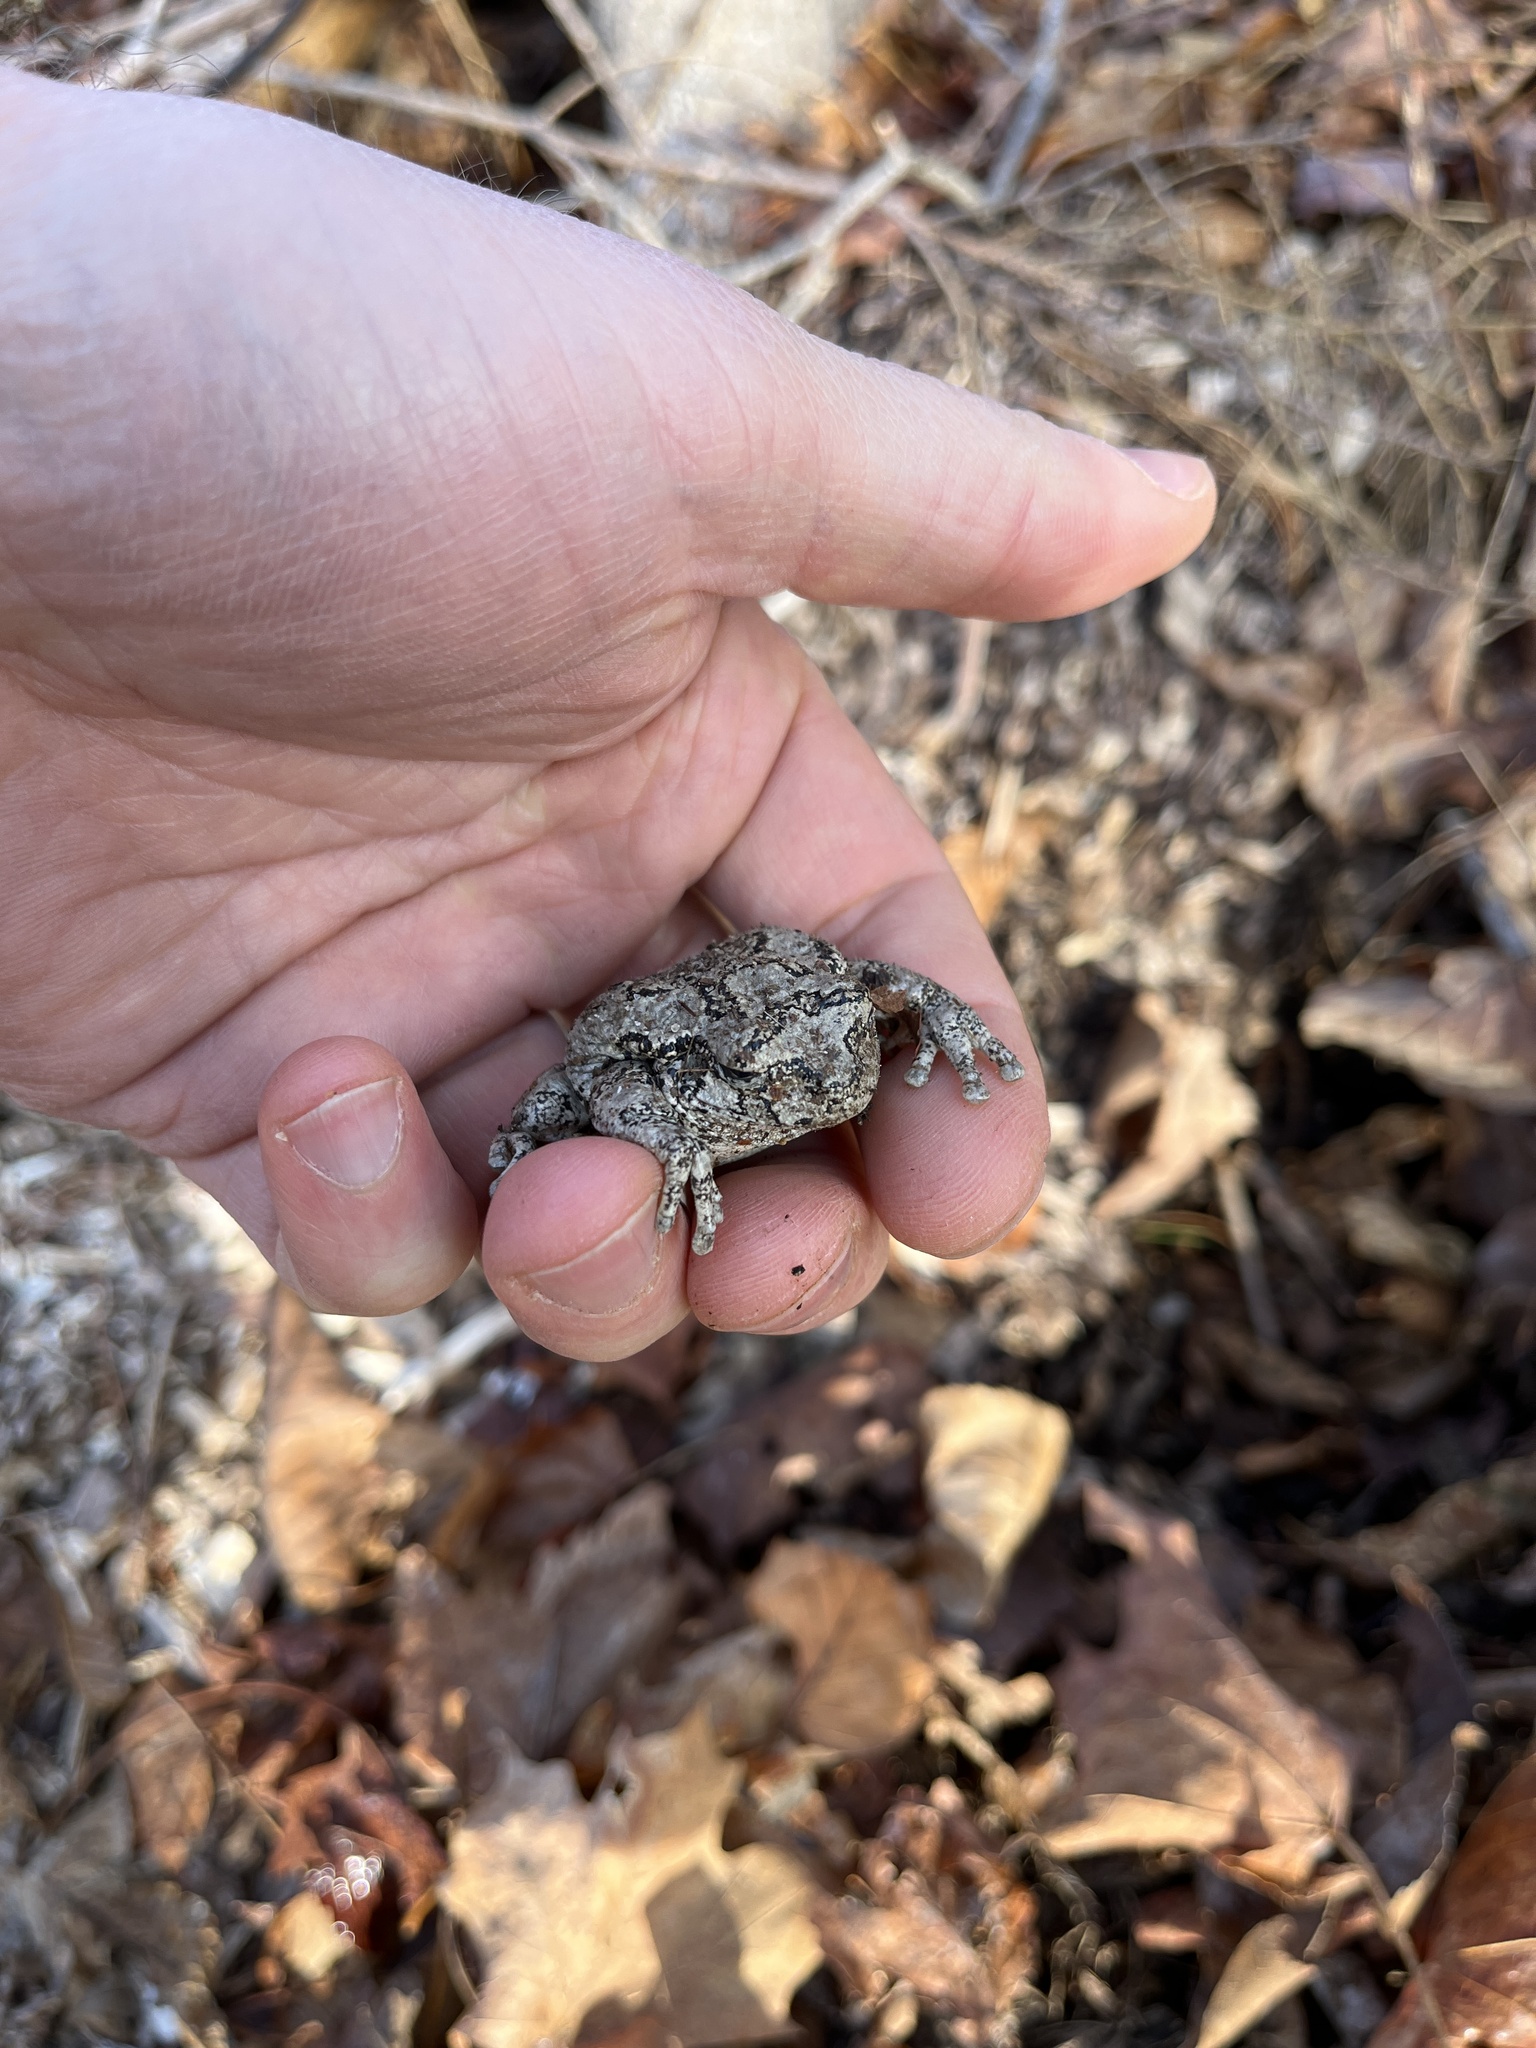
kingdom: Animalia
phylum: Chordata
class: Amphibia
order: Anura
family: Hylidae
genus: Dryophytes
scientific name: Dryophytes versicolor
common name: Gray treefrog
